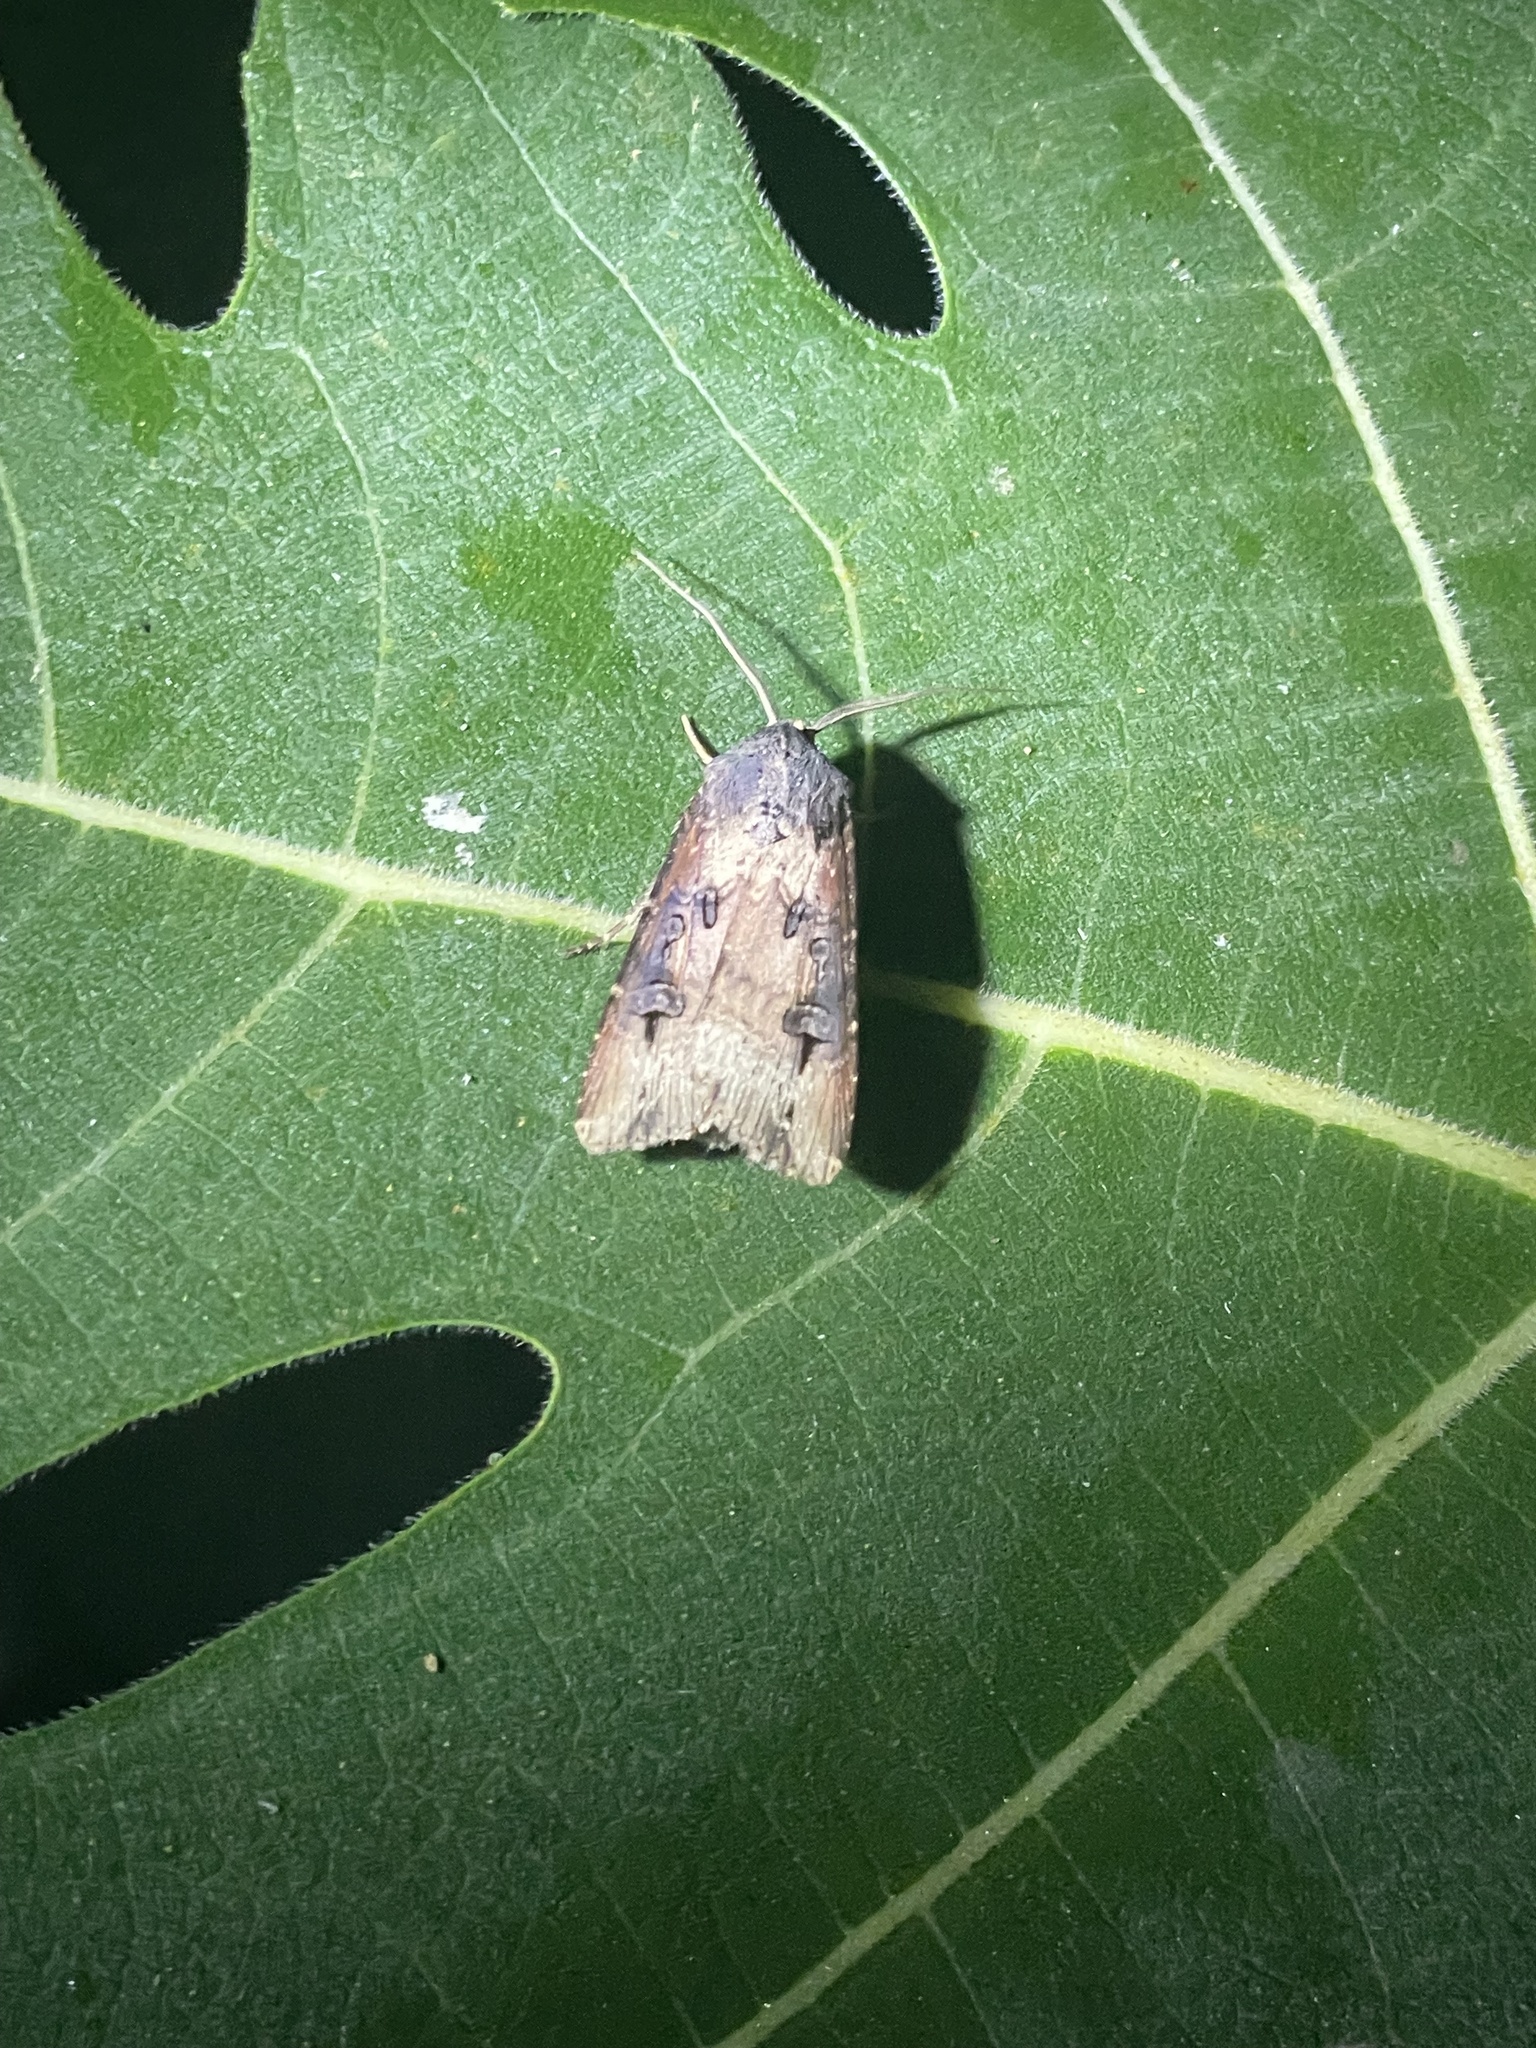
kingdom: Animalia
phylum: Arthropoda
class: Insecta
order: Lepidoptera
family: Noctuidae
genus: Agrotis
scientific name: Agrotis ipsilon
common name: Dark sword-grass
